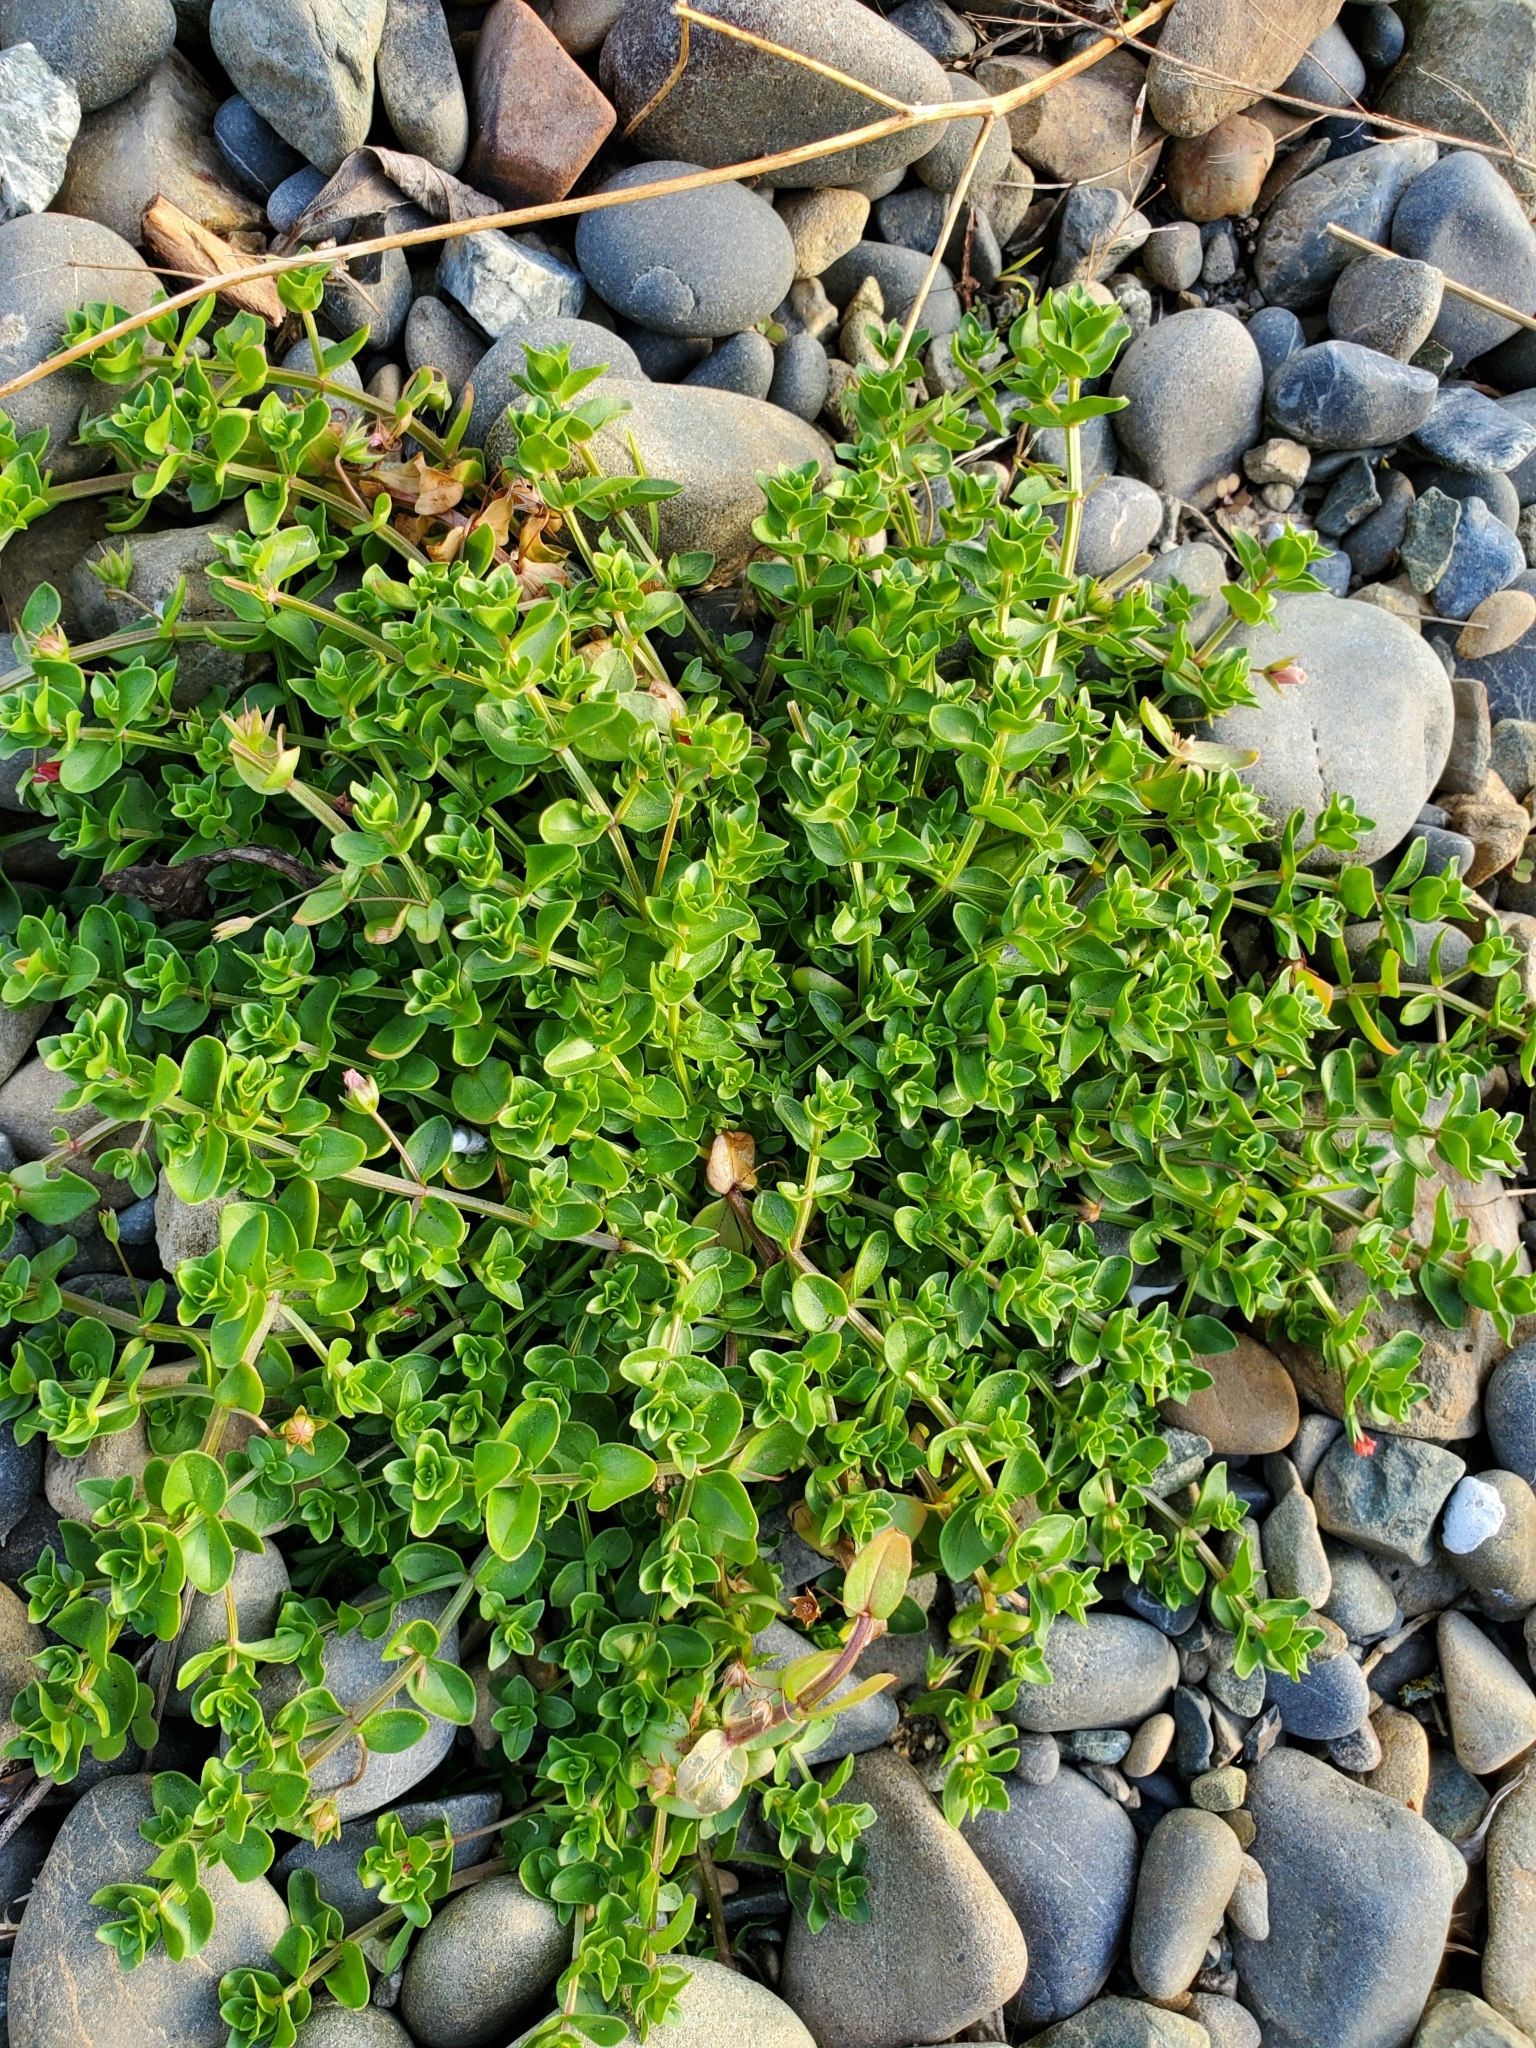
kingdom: Plantae
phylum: Tracheophyta
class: Magnoliopsida
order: Ericales
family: Primulaceae
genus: Lysimachia
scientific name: Lysimachia arvensis
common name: Scarlet pimpernel
